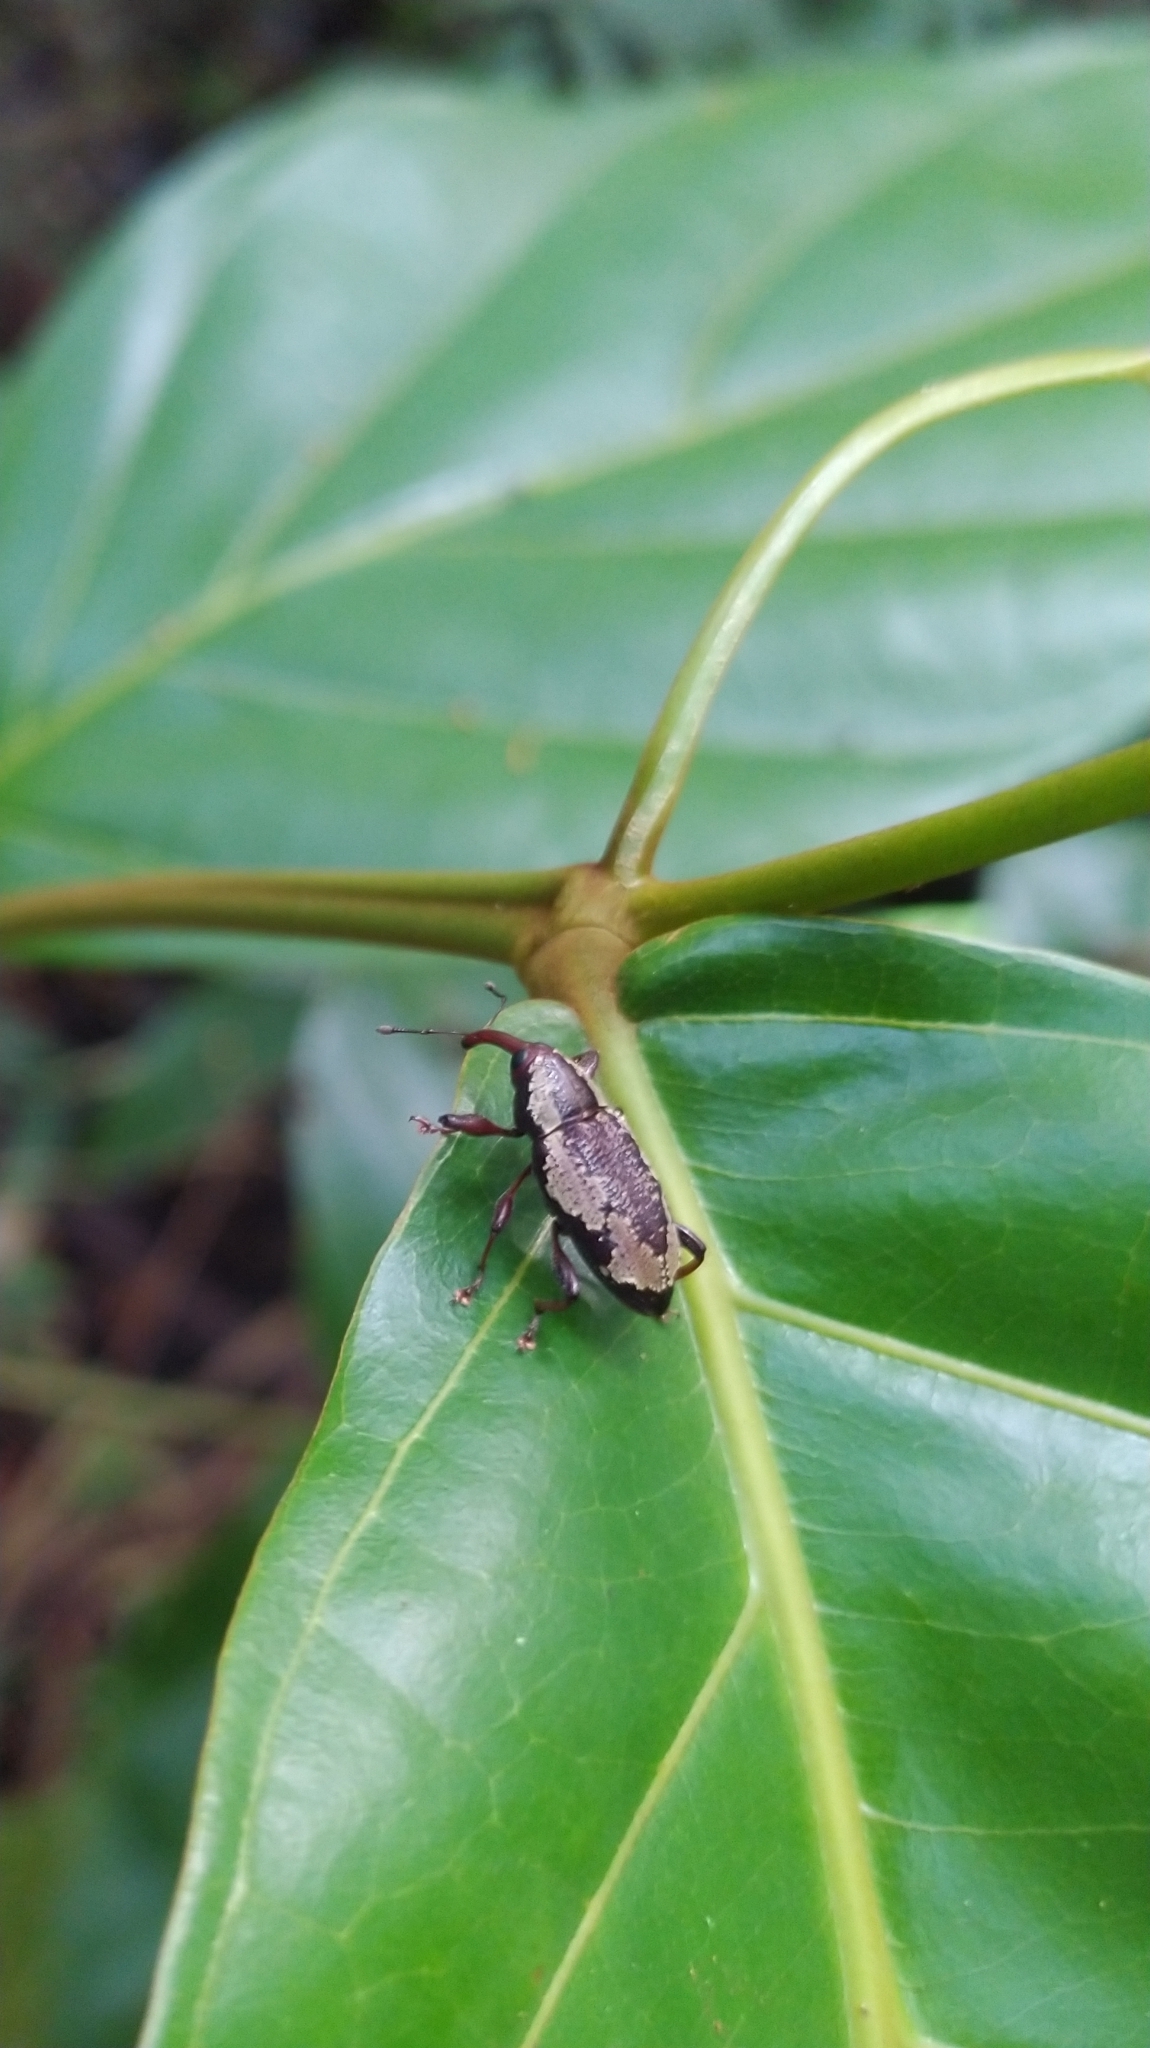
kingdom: Animalia
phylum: Arthropoda
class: Insecta
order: Coleoptera
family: Curculionidae
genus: Heilipodus
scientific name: Heilipodus similis
